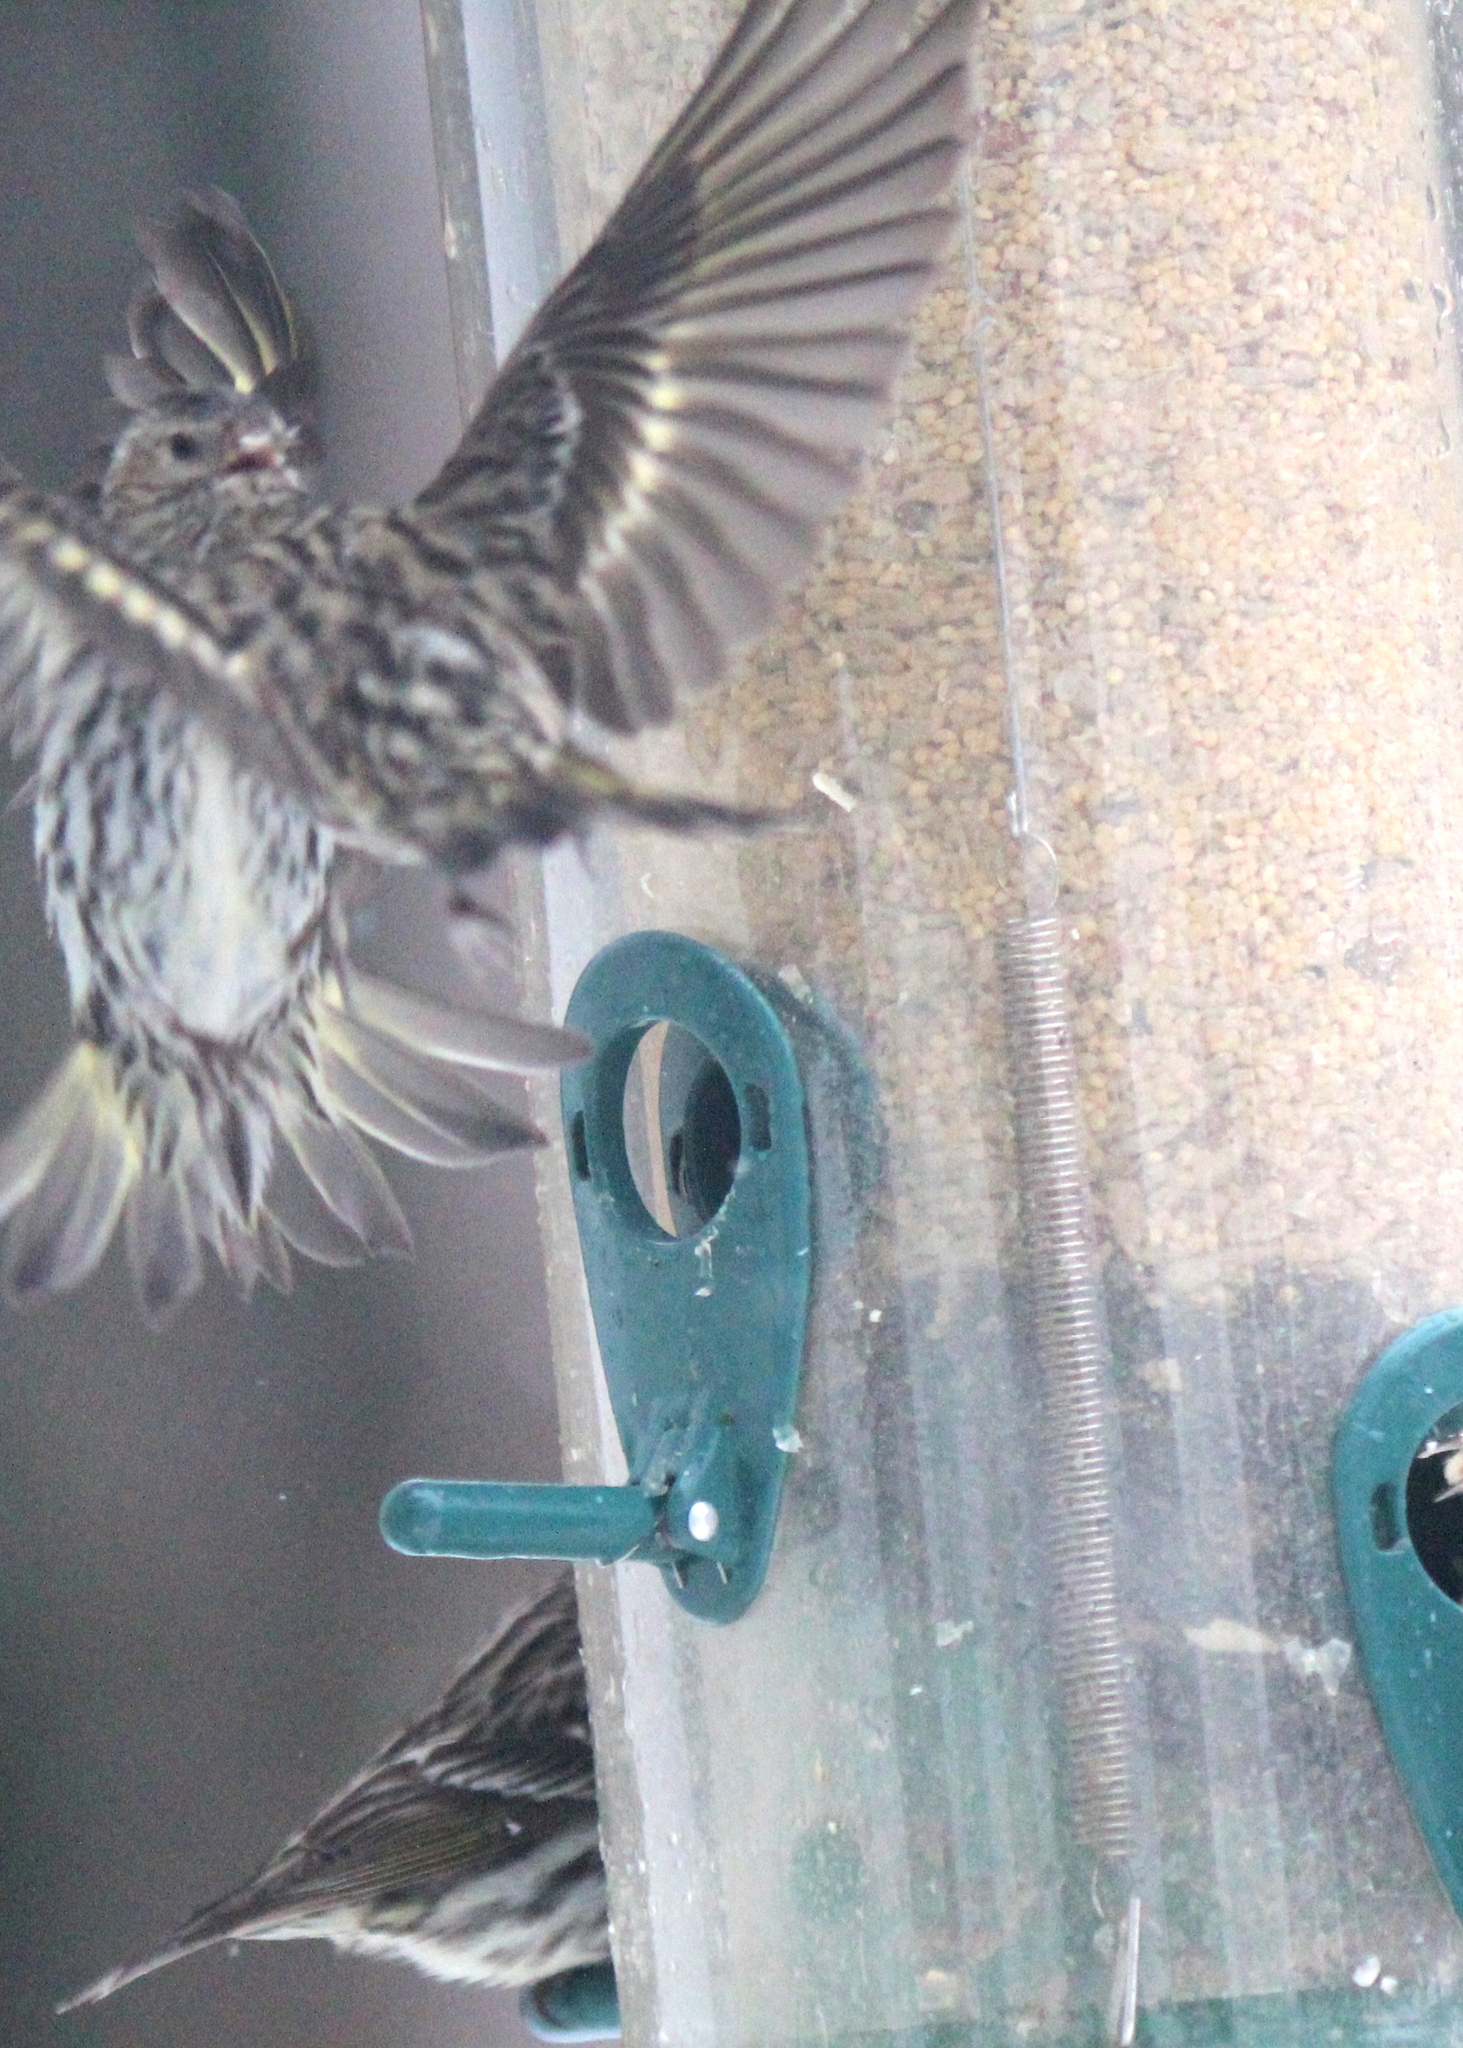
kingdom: Animalia
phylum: Chordata
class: Aves
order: Passeriformes
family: Fringillidae
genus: Spinus
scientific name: Spinus pinus
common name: Pine siskin
